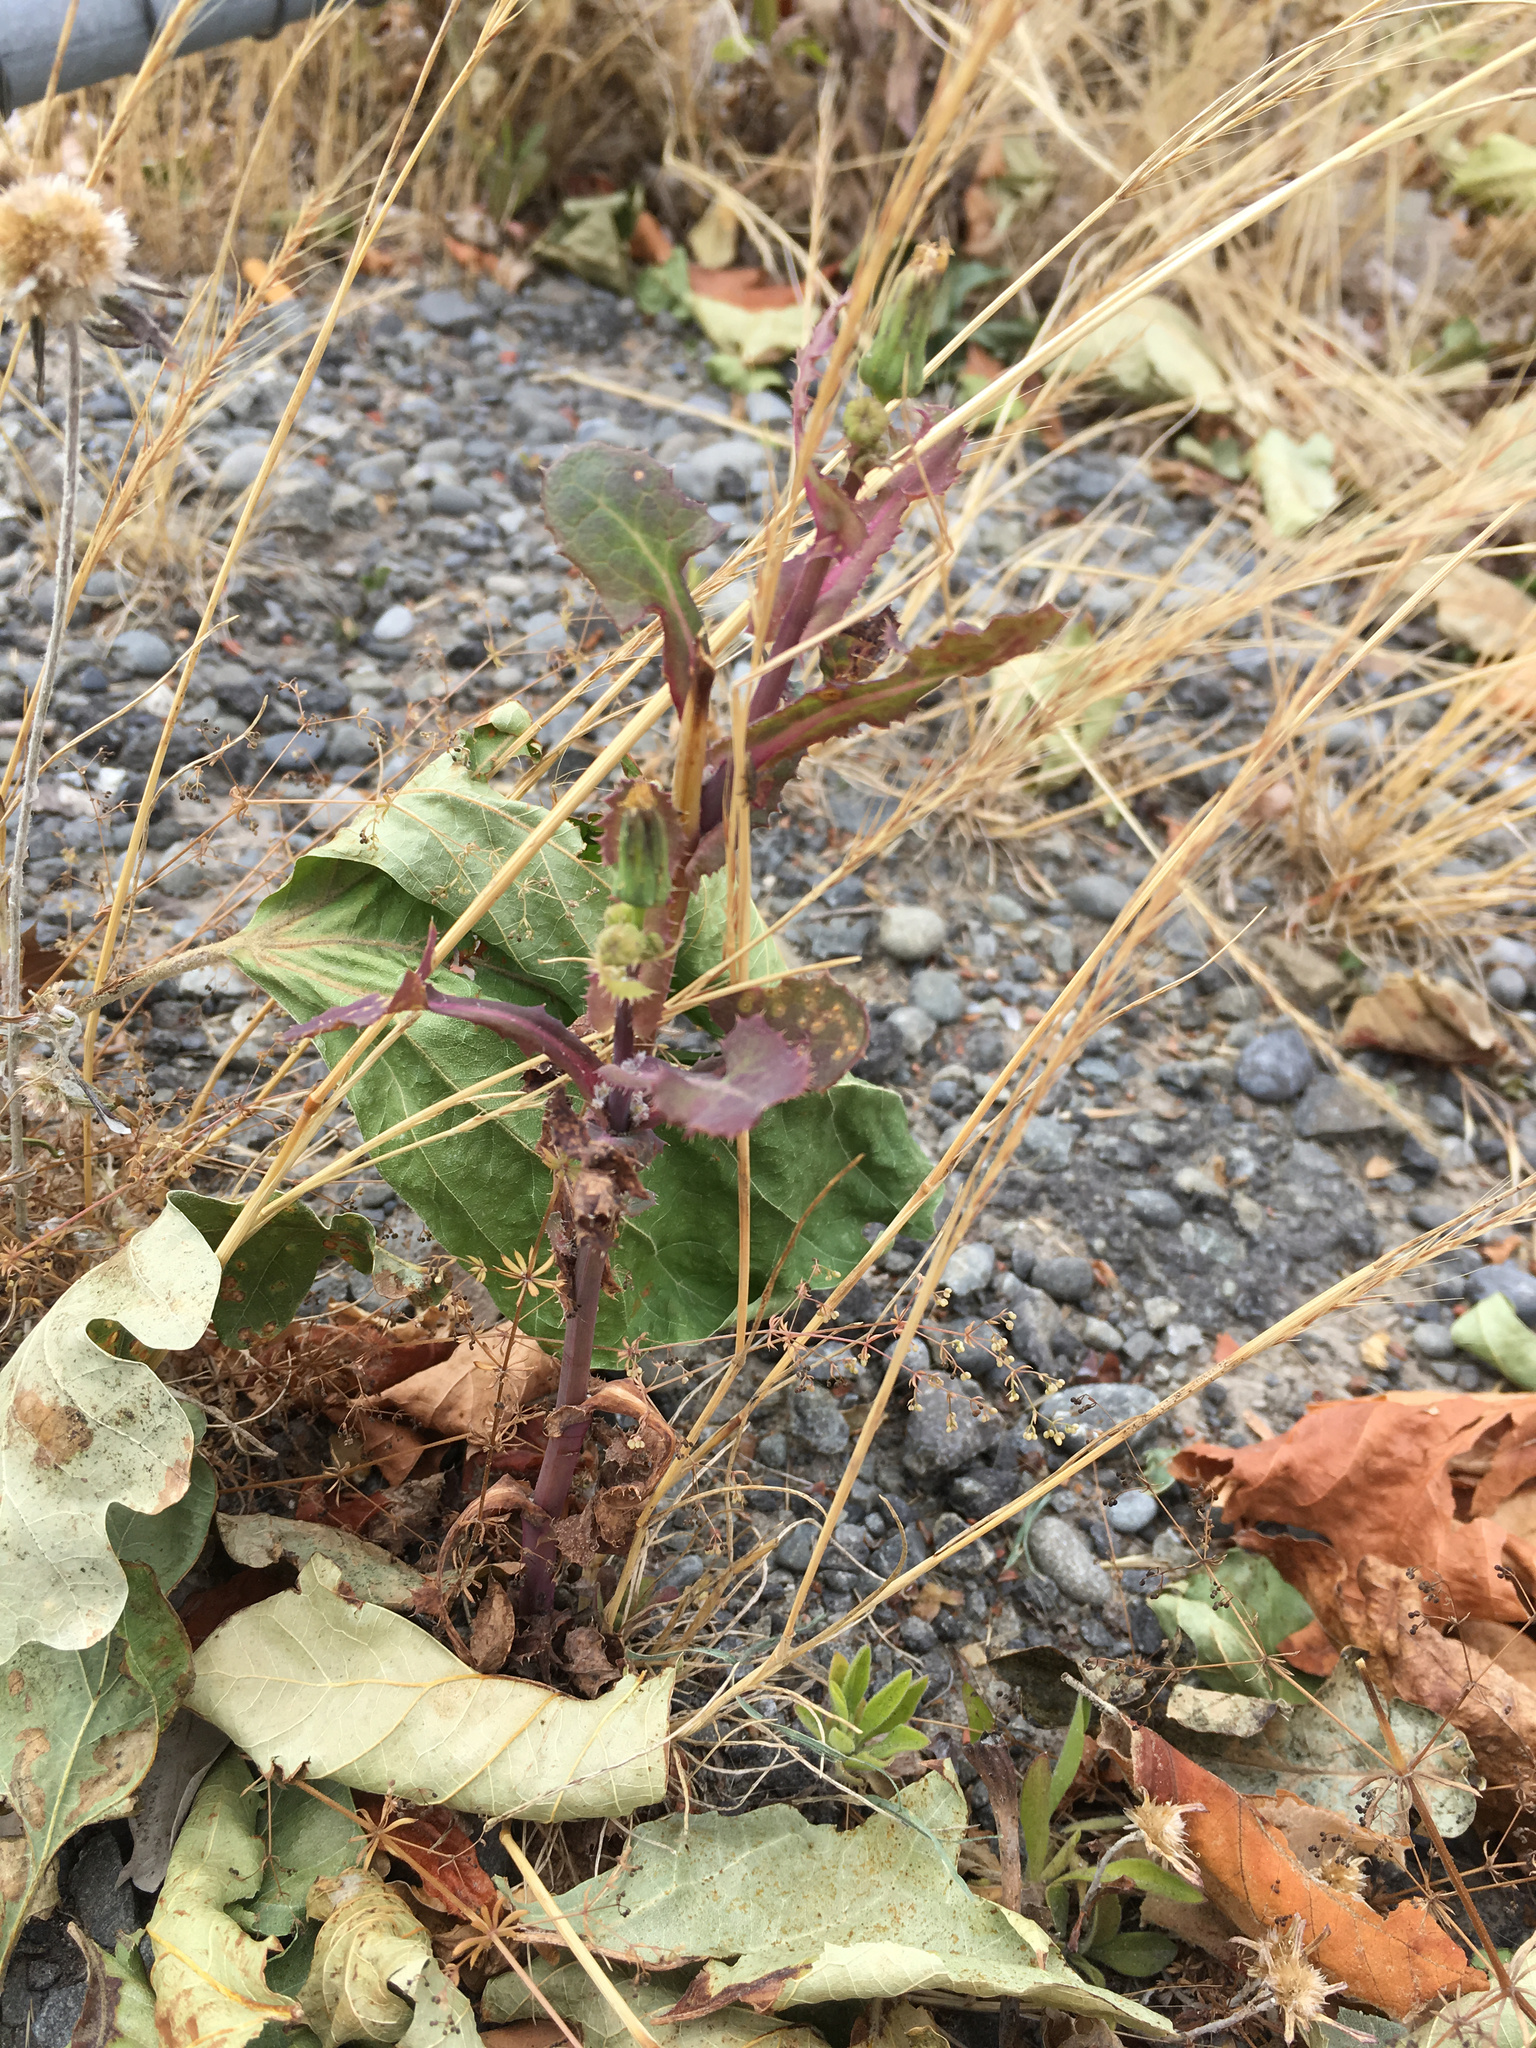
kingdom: Plantae
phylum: Tracheophyta
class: Magnoliopsida
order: Asterales
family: Asteraceae
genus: Sonchus
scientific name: Sonchus oleraceus
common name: Common sowthistle
